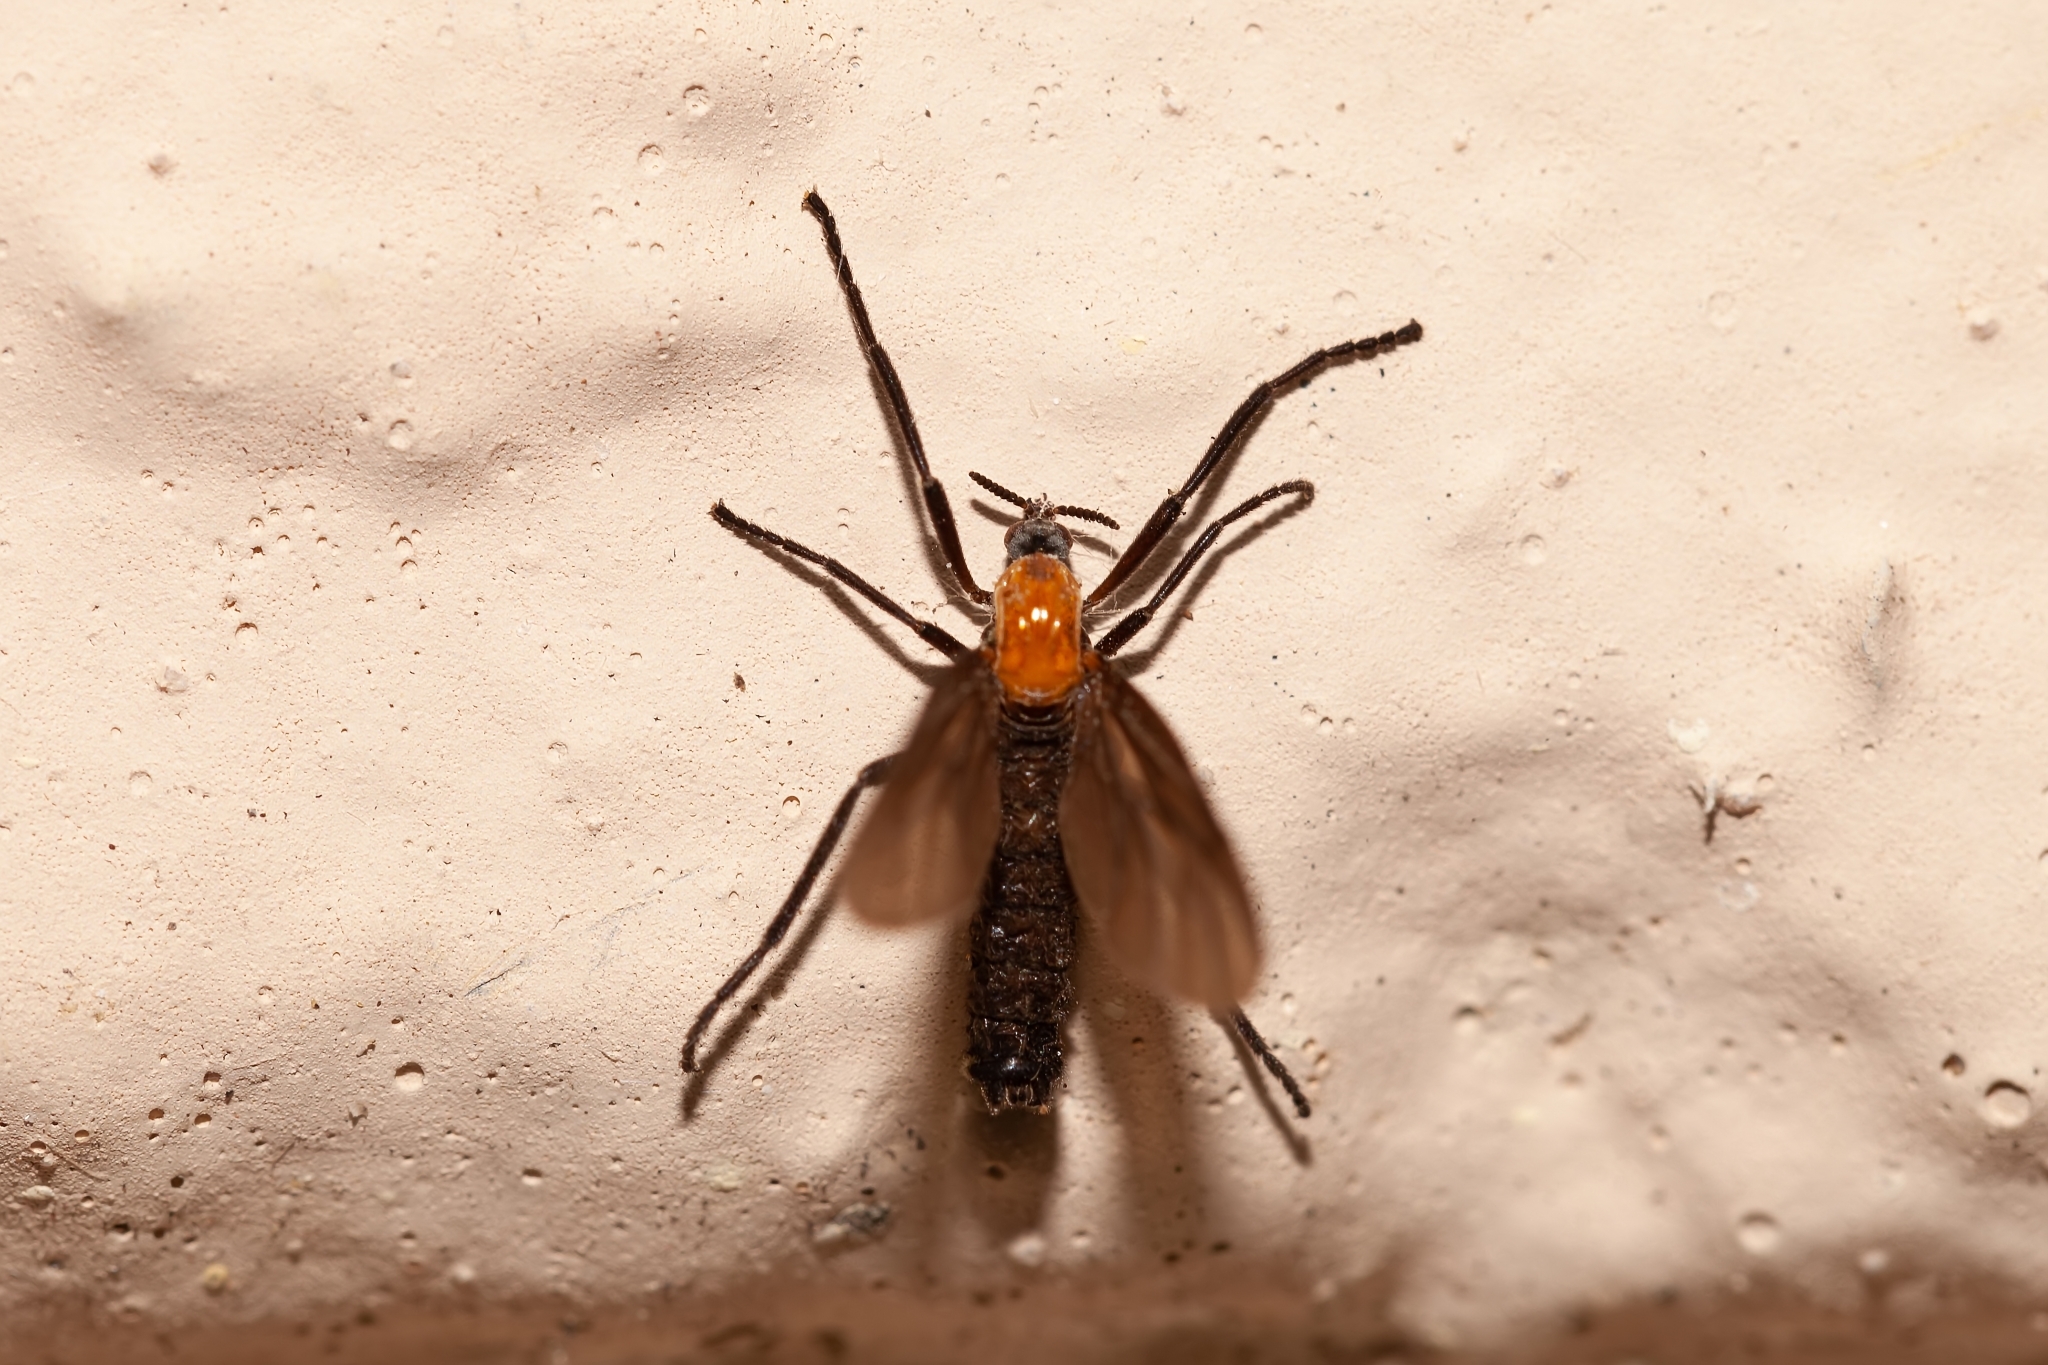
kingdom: Animalia
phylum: Arthropoda
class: Insecta
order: Diptera
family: Bibionidae
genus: Plecia
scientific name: Plecia nearctica
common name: March fly
